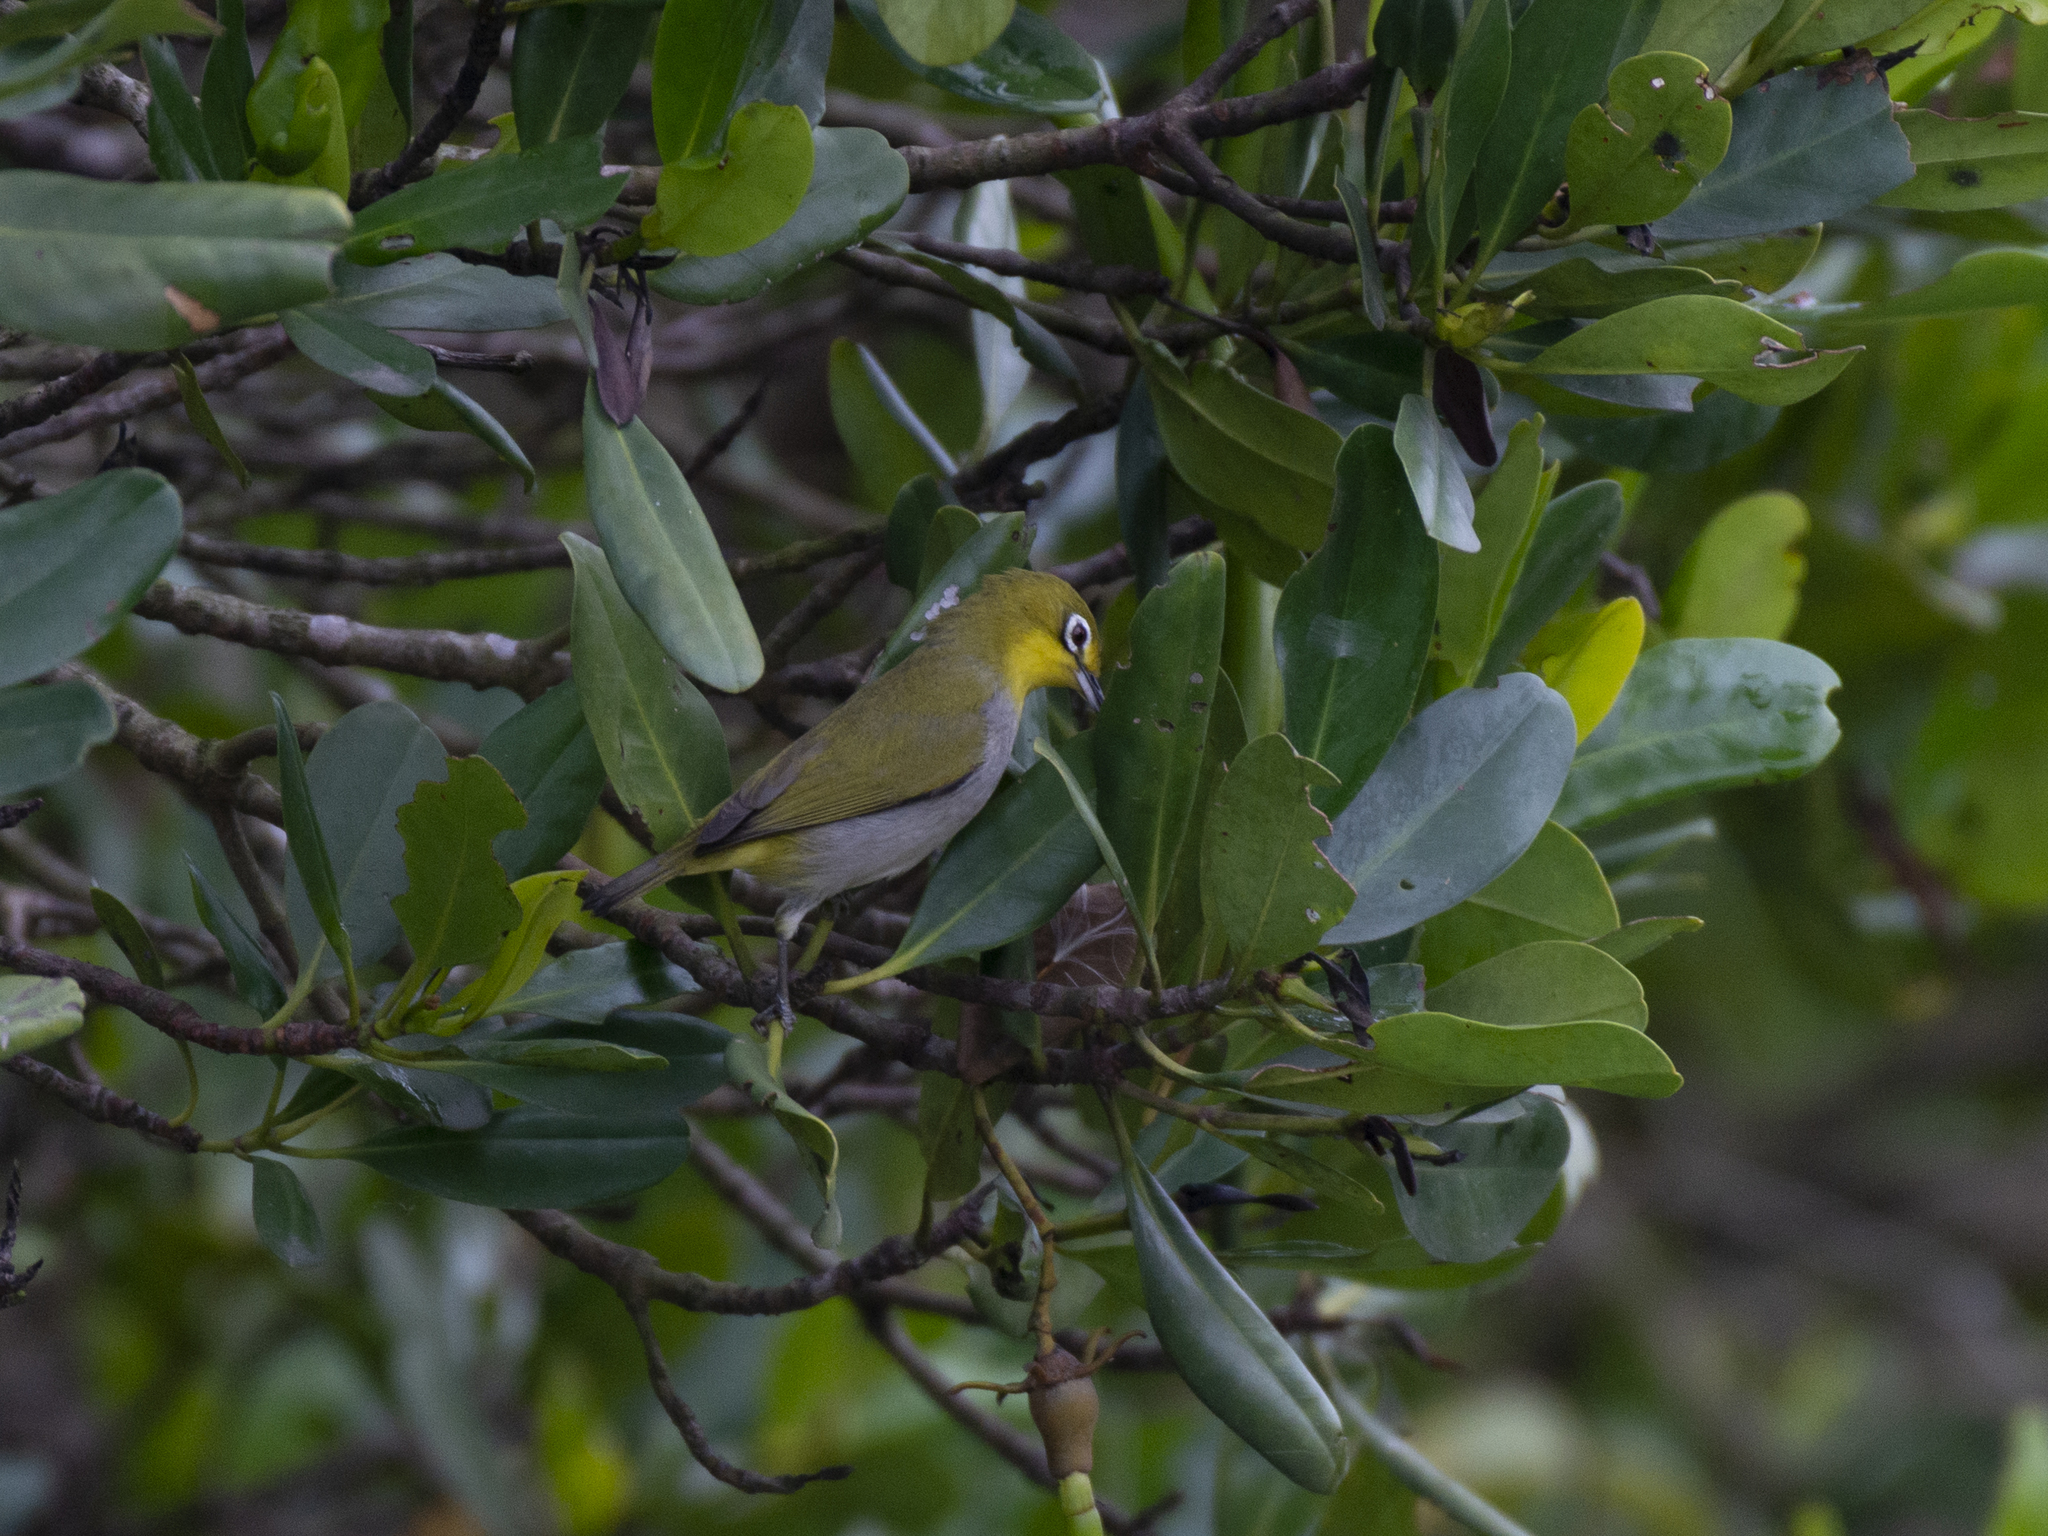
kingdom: Animalia
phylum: Chordata
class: Aves
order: Passeriformes
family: Zosteropidae
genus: Zosterops
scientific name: Zosterops simplex
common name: Swinhoe's white-eye
